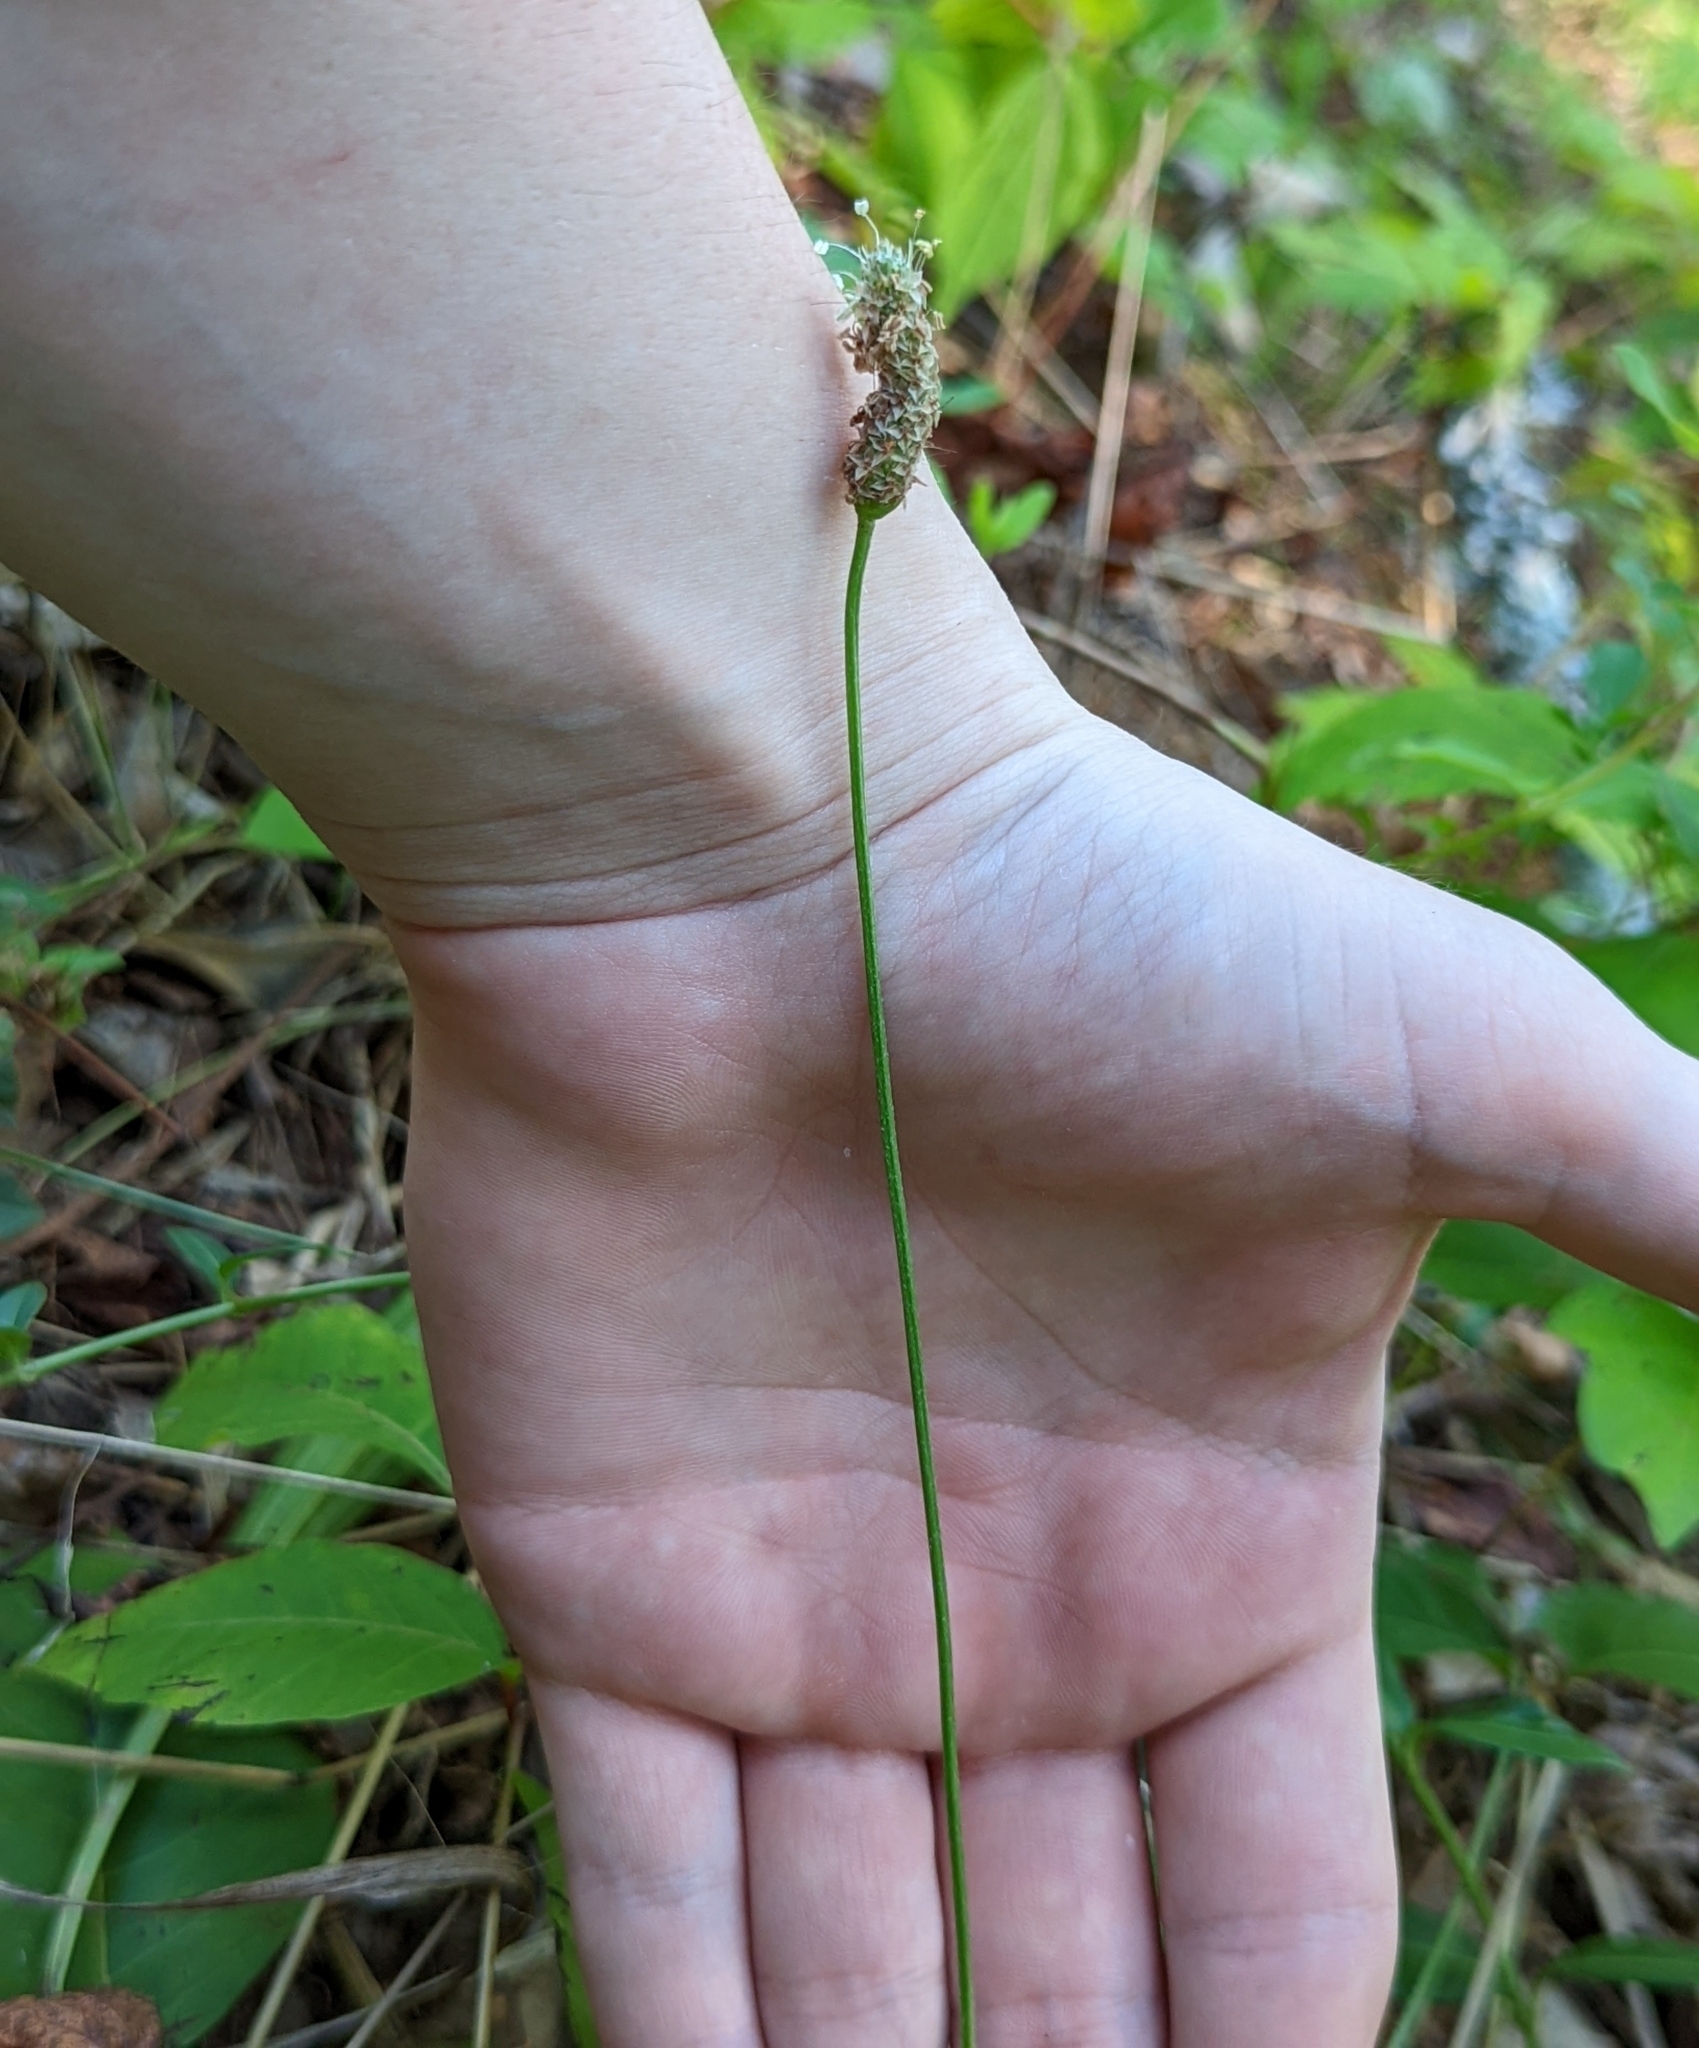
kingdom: Plantae
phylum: Tracheophyta
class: Magnoliopsida
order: Lamiales
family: Plantaginaceae
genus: Plantago
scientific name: Plantago lanceolata
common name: Ribwort plantain
